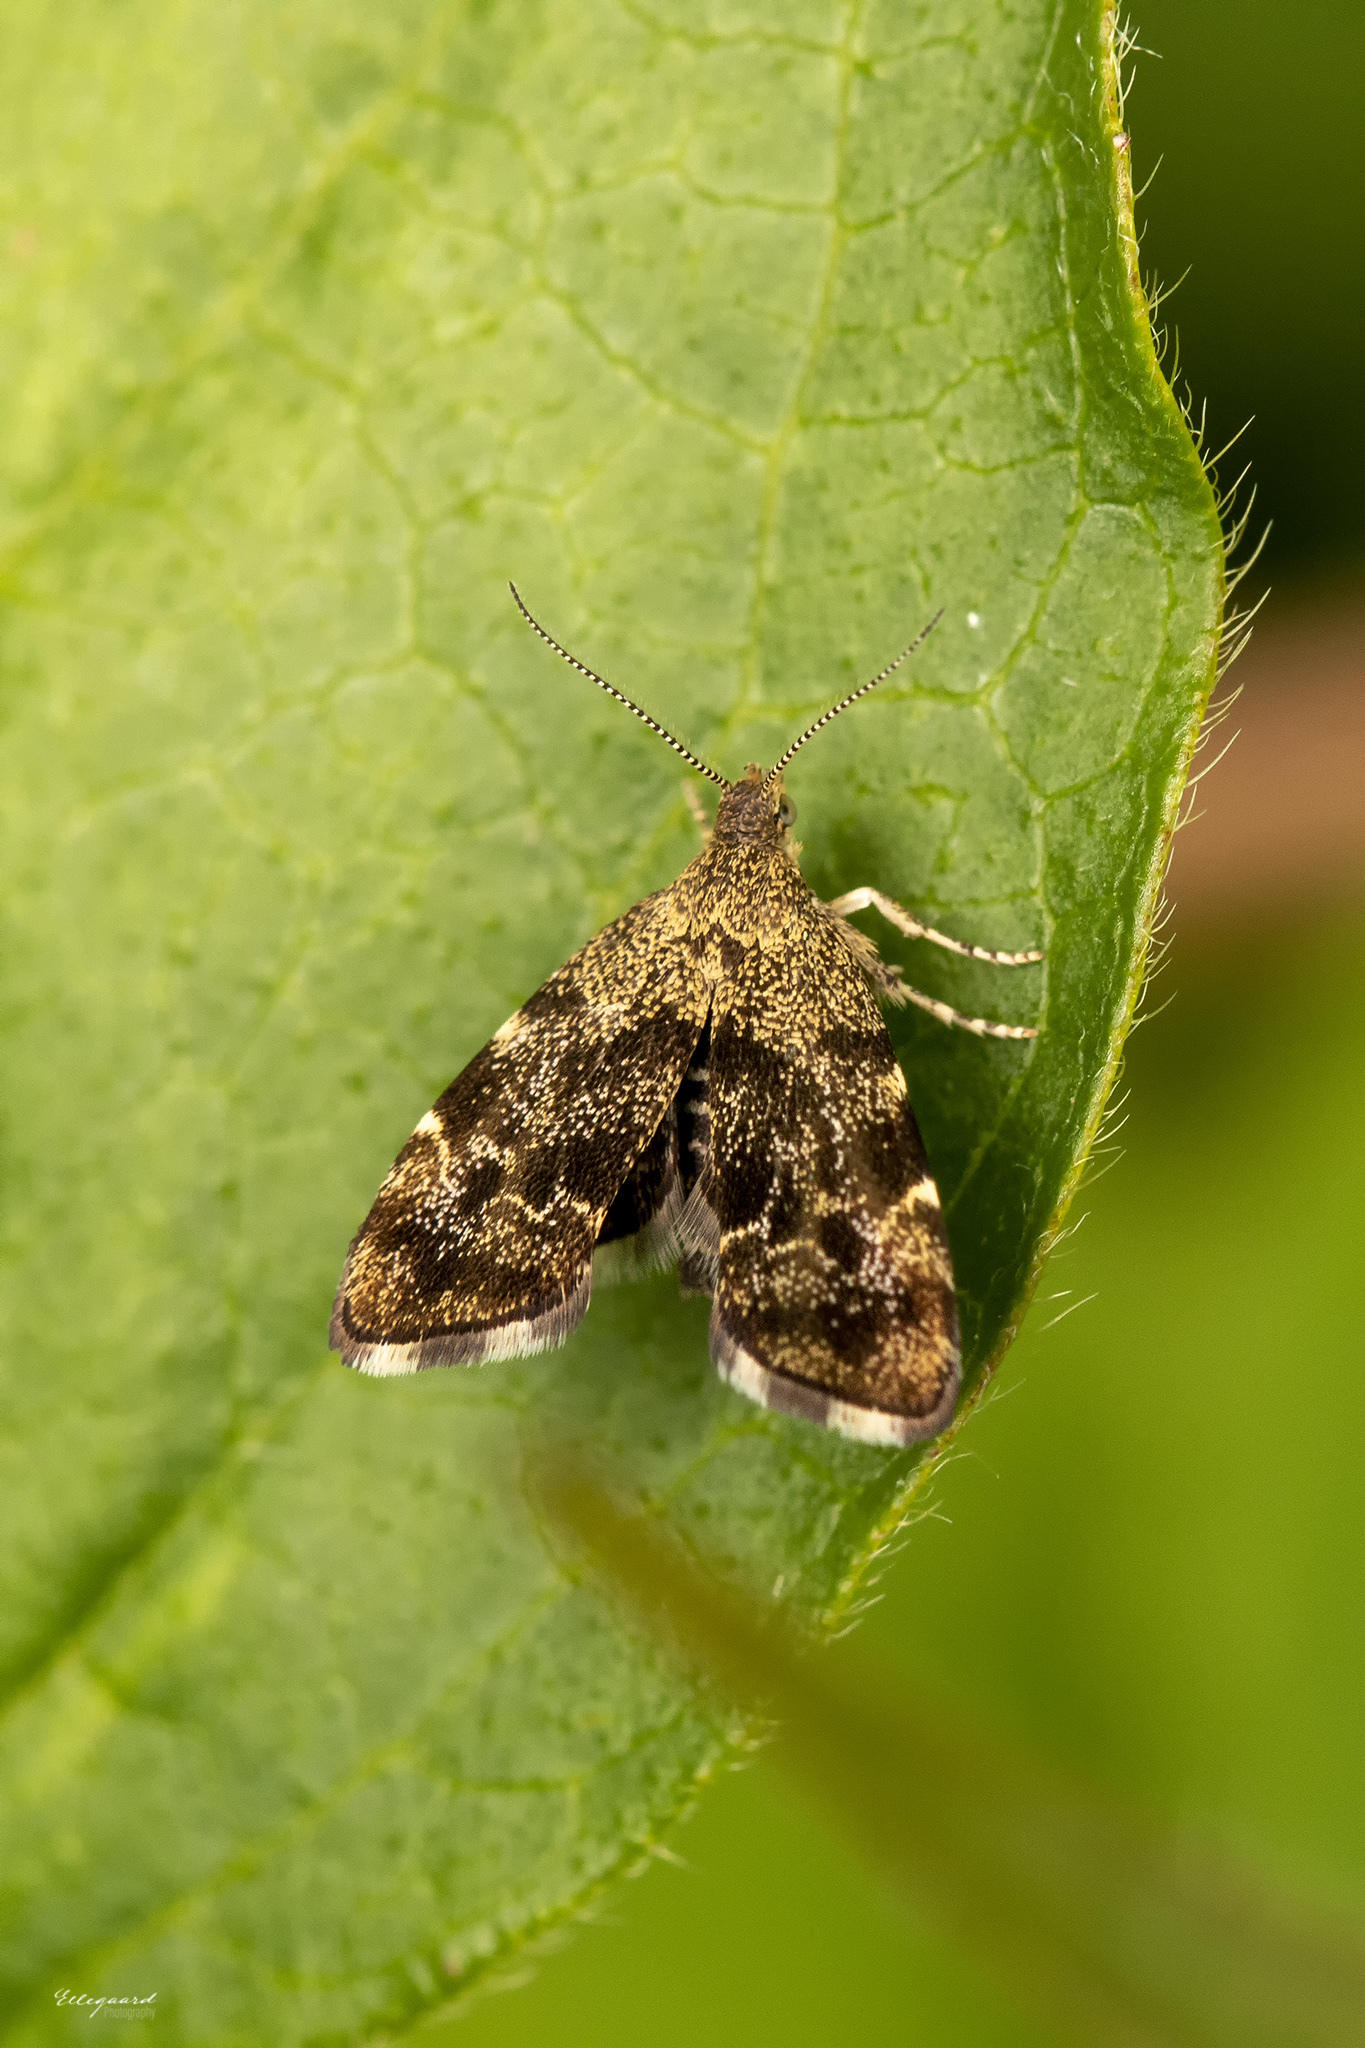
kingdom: Animalia
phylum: Arthropoda
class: Insecta
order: Lepidoptera
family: Choreutidae
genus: Anthophila
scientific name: Anthophila fabriciana
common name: Nettle-tap
